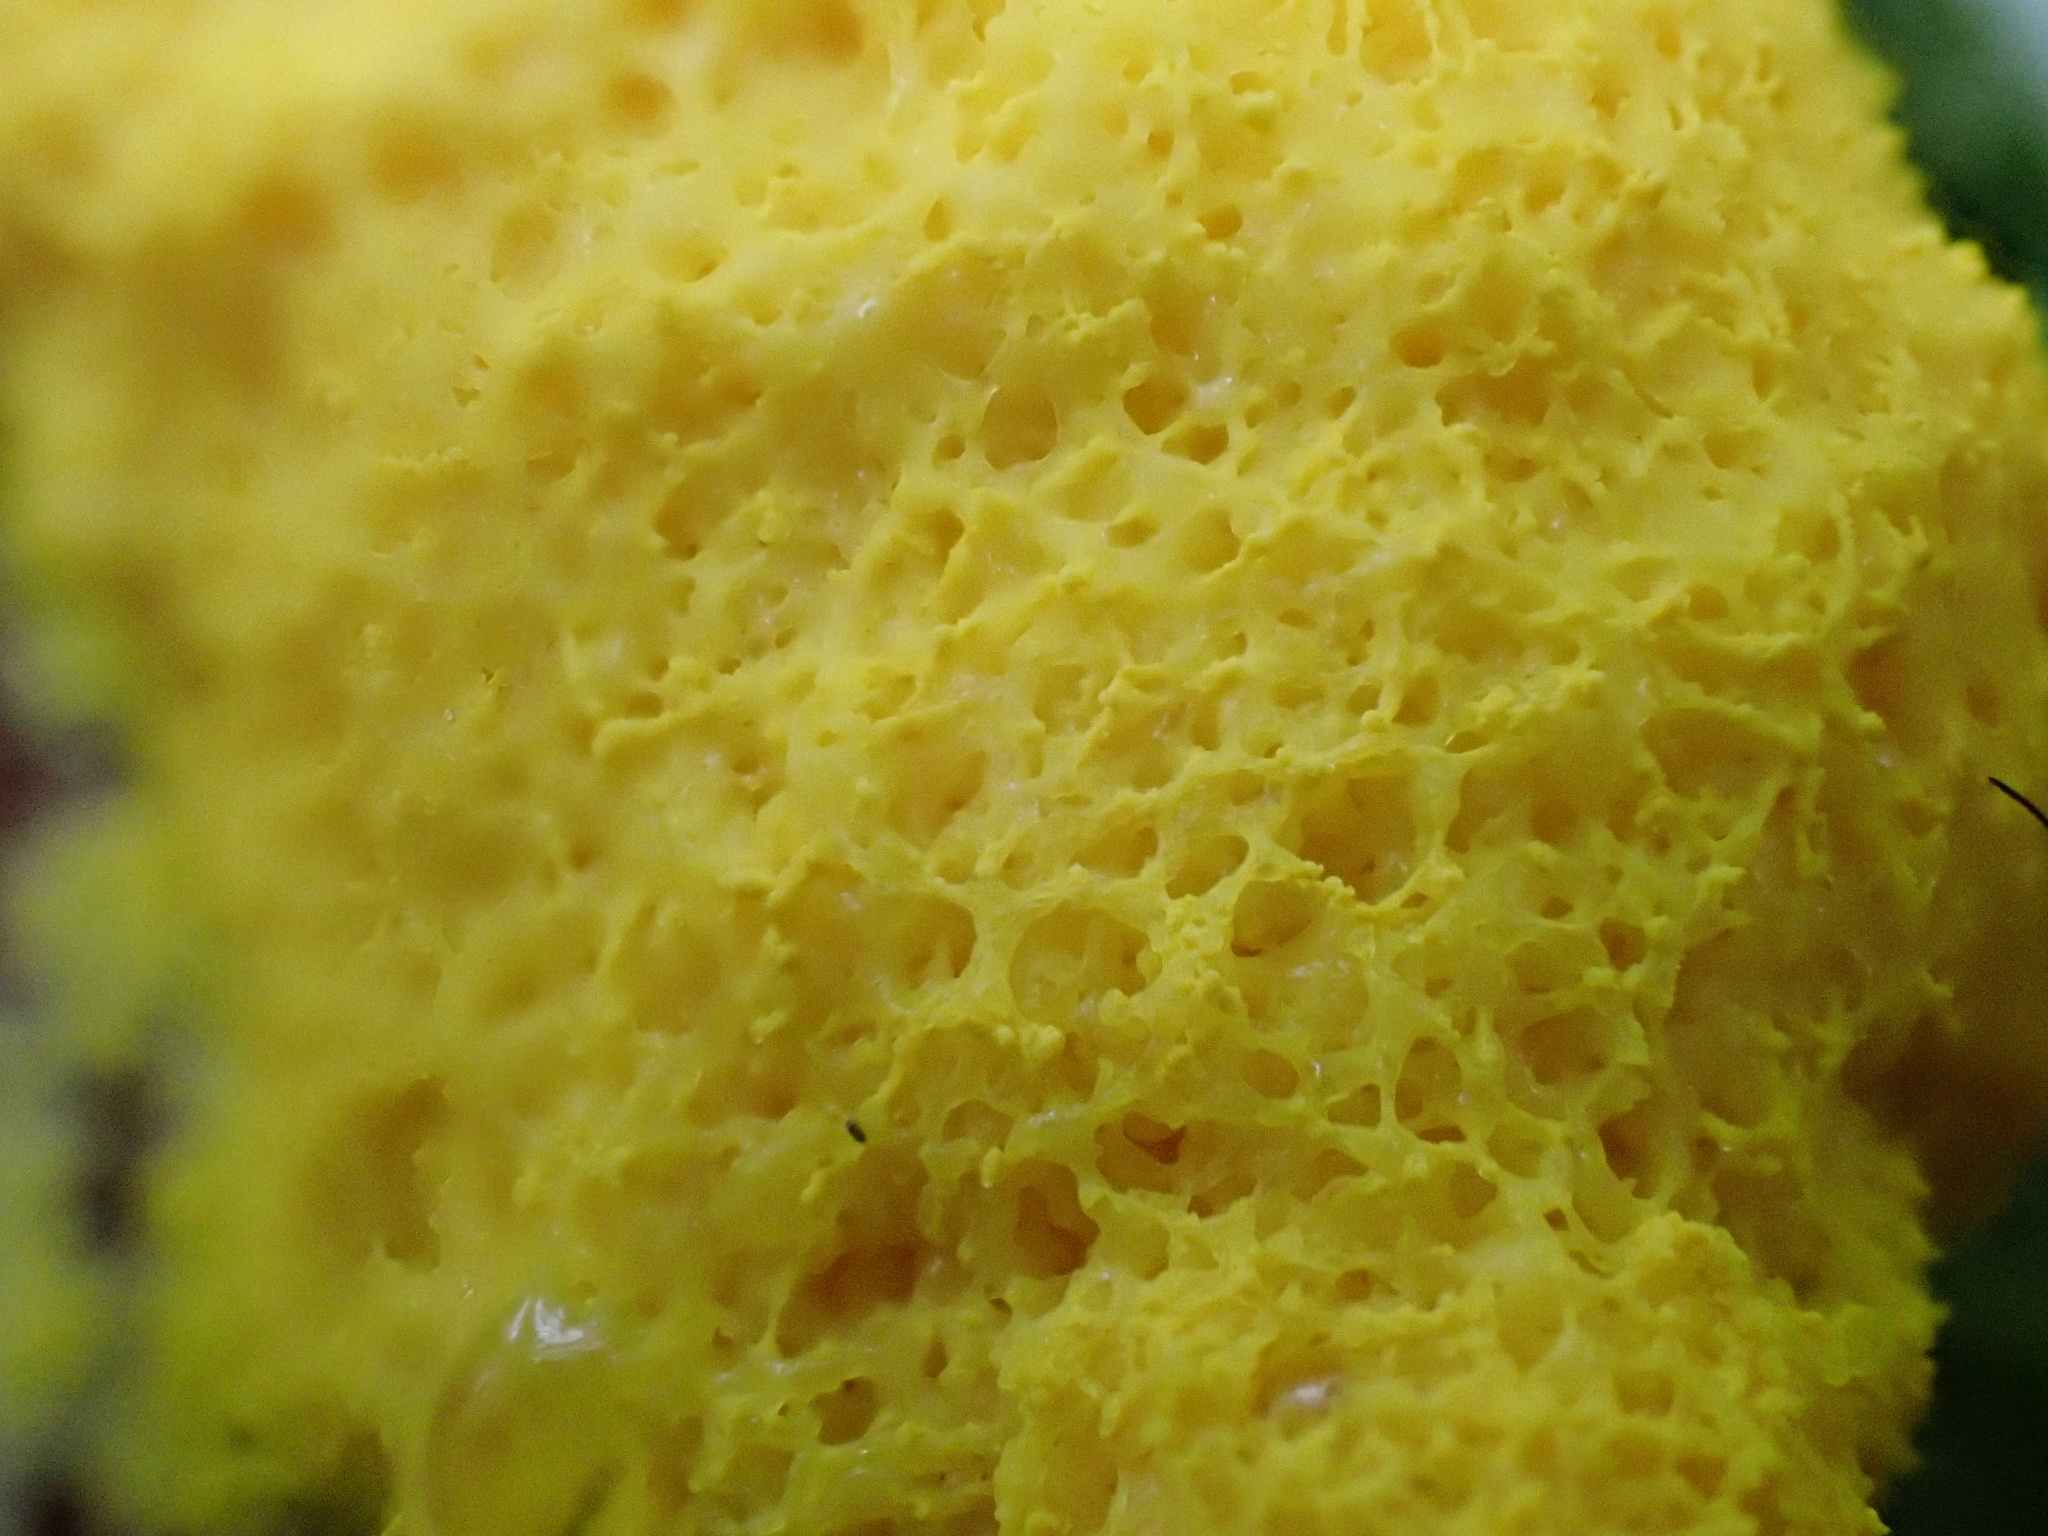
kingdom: Protozoa
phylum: Mycetozoa
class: Myxomycetes
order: Physarales
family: Physaraceae
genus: Fuligo
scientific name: Fuligo septica
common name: Dog vomit slime mold
